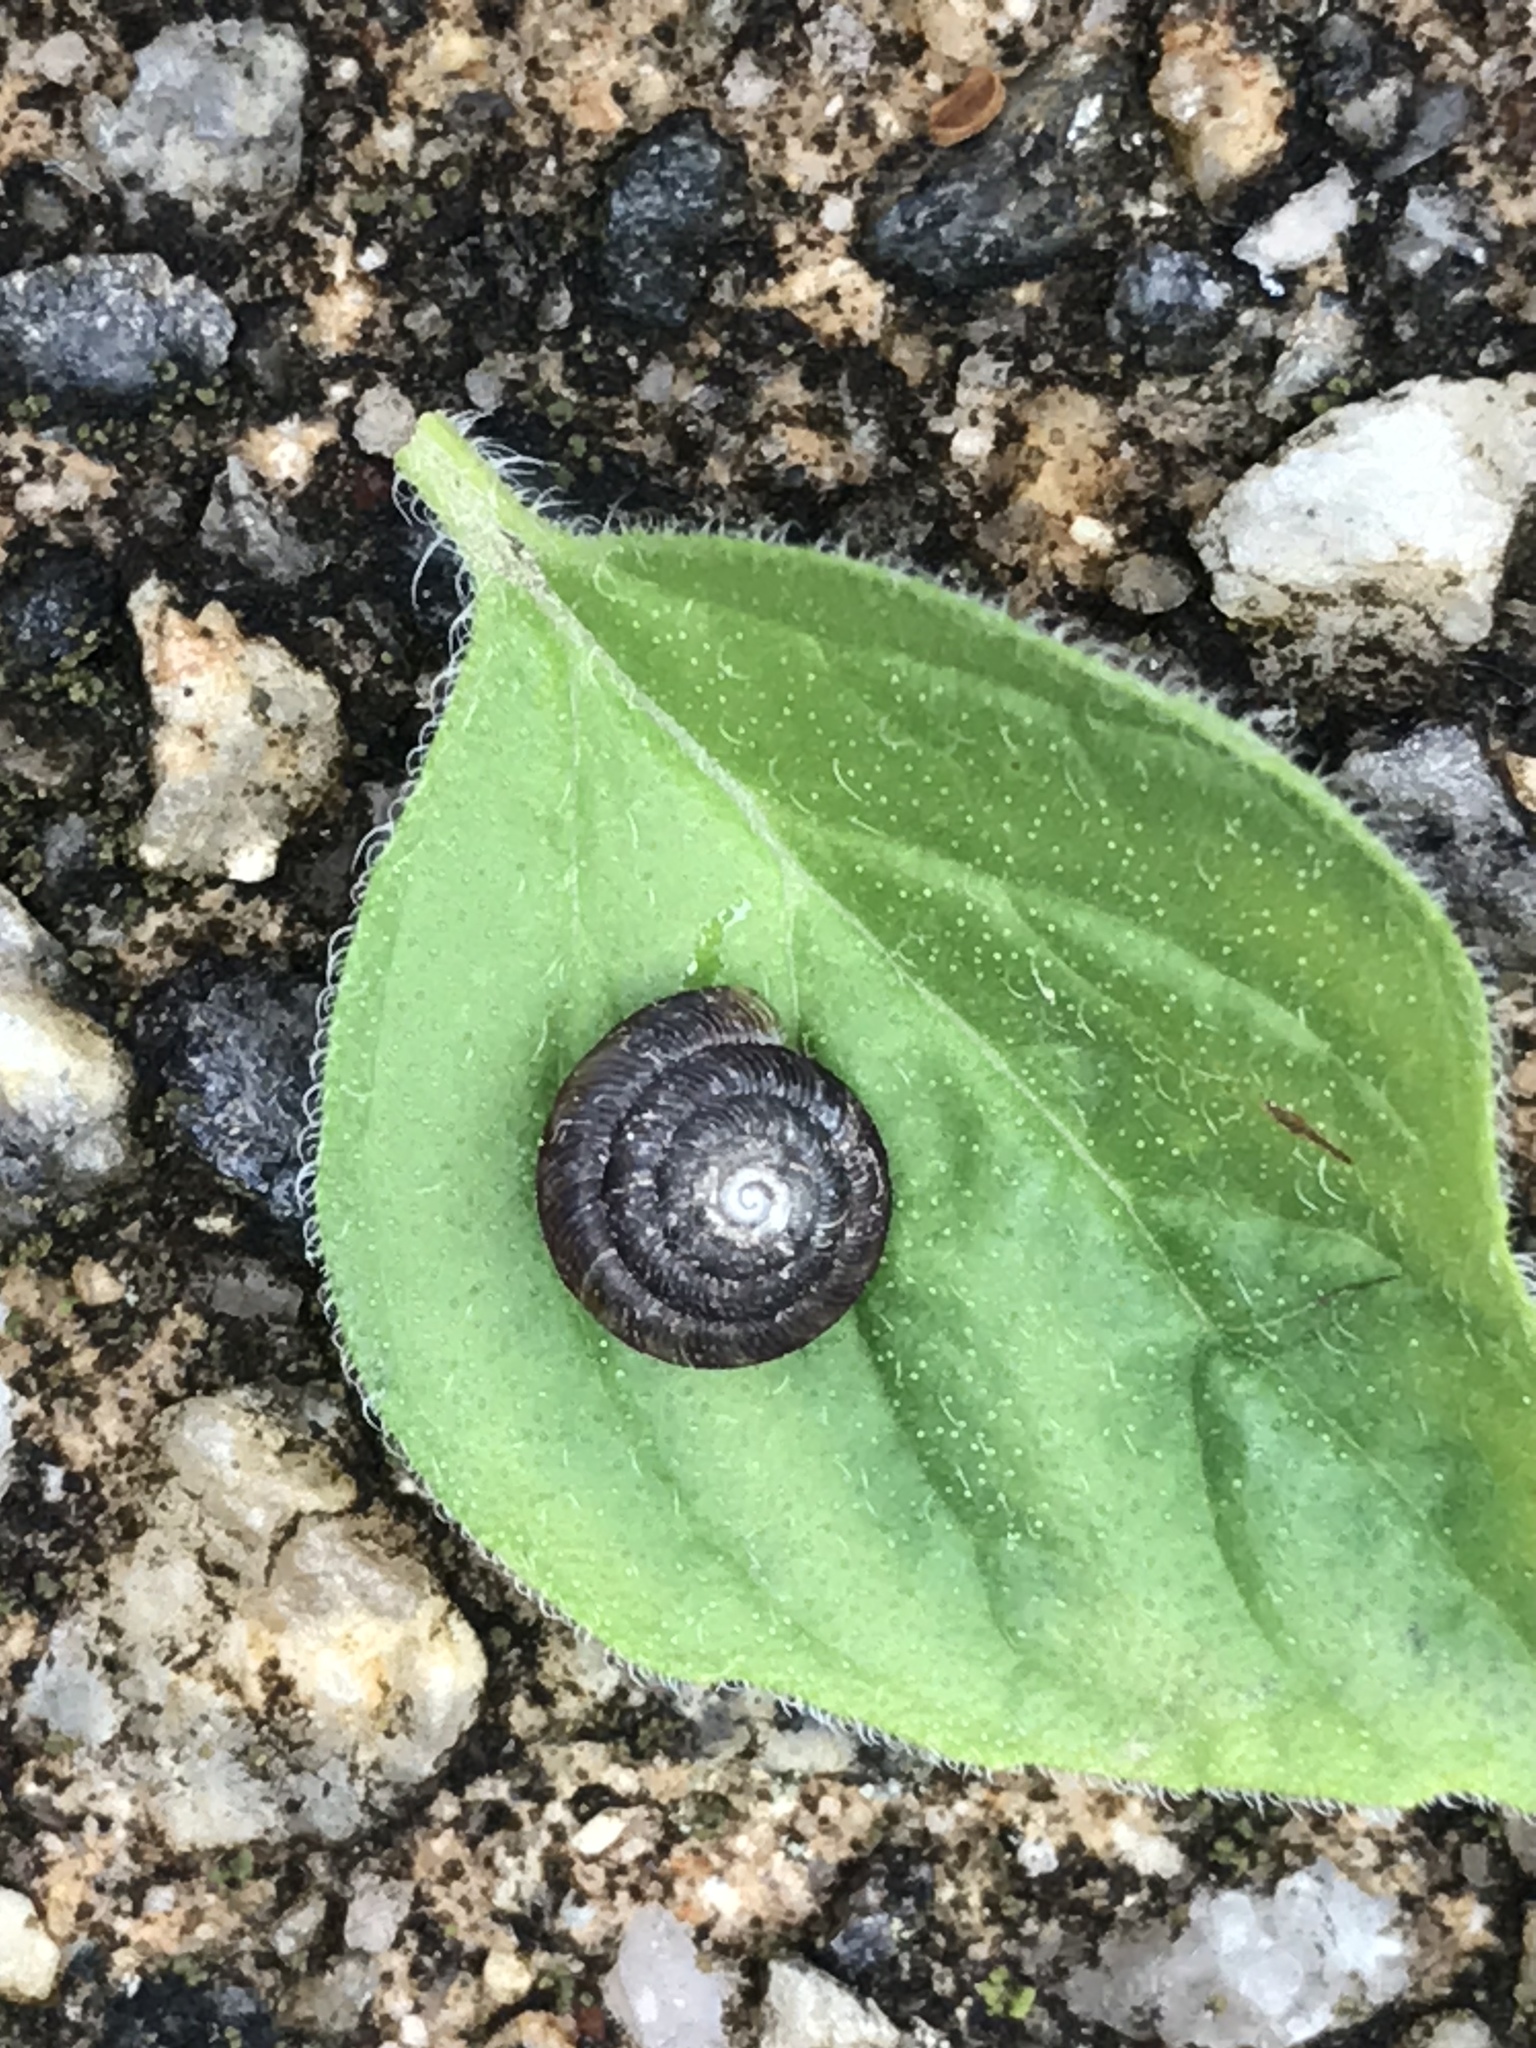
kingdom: Animalia
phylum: Mollusca
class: Gastropoda
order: Stylommatophora
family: Discidae
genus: Discus
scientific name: Discus rotundatus
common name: Rounded snail
